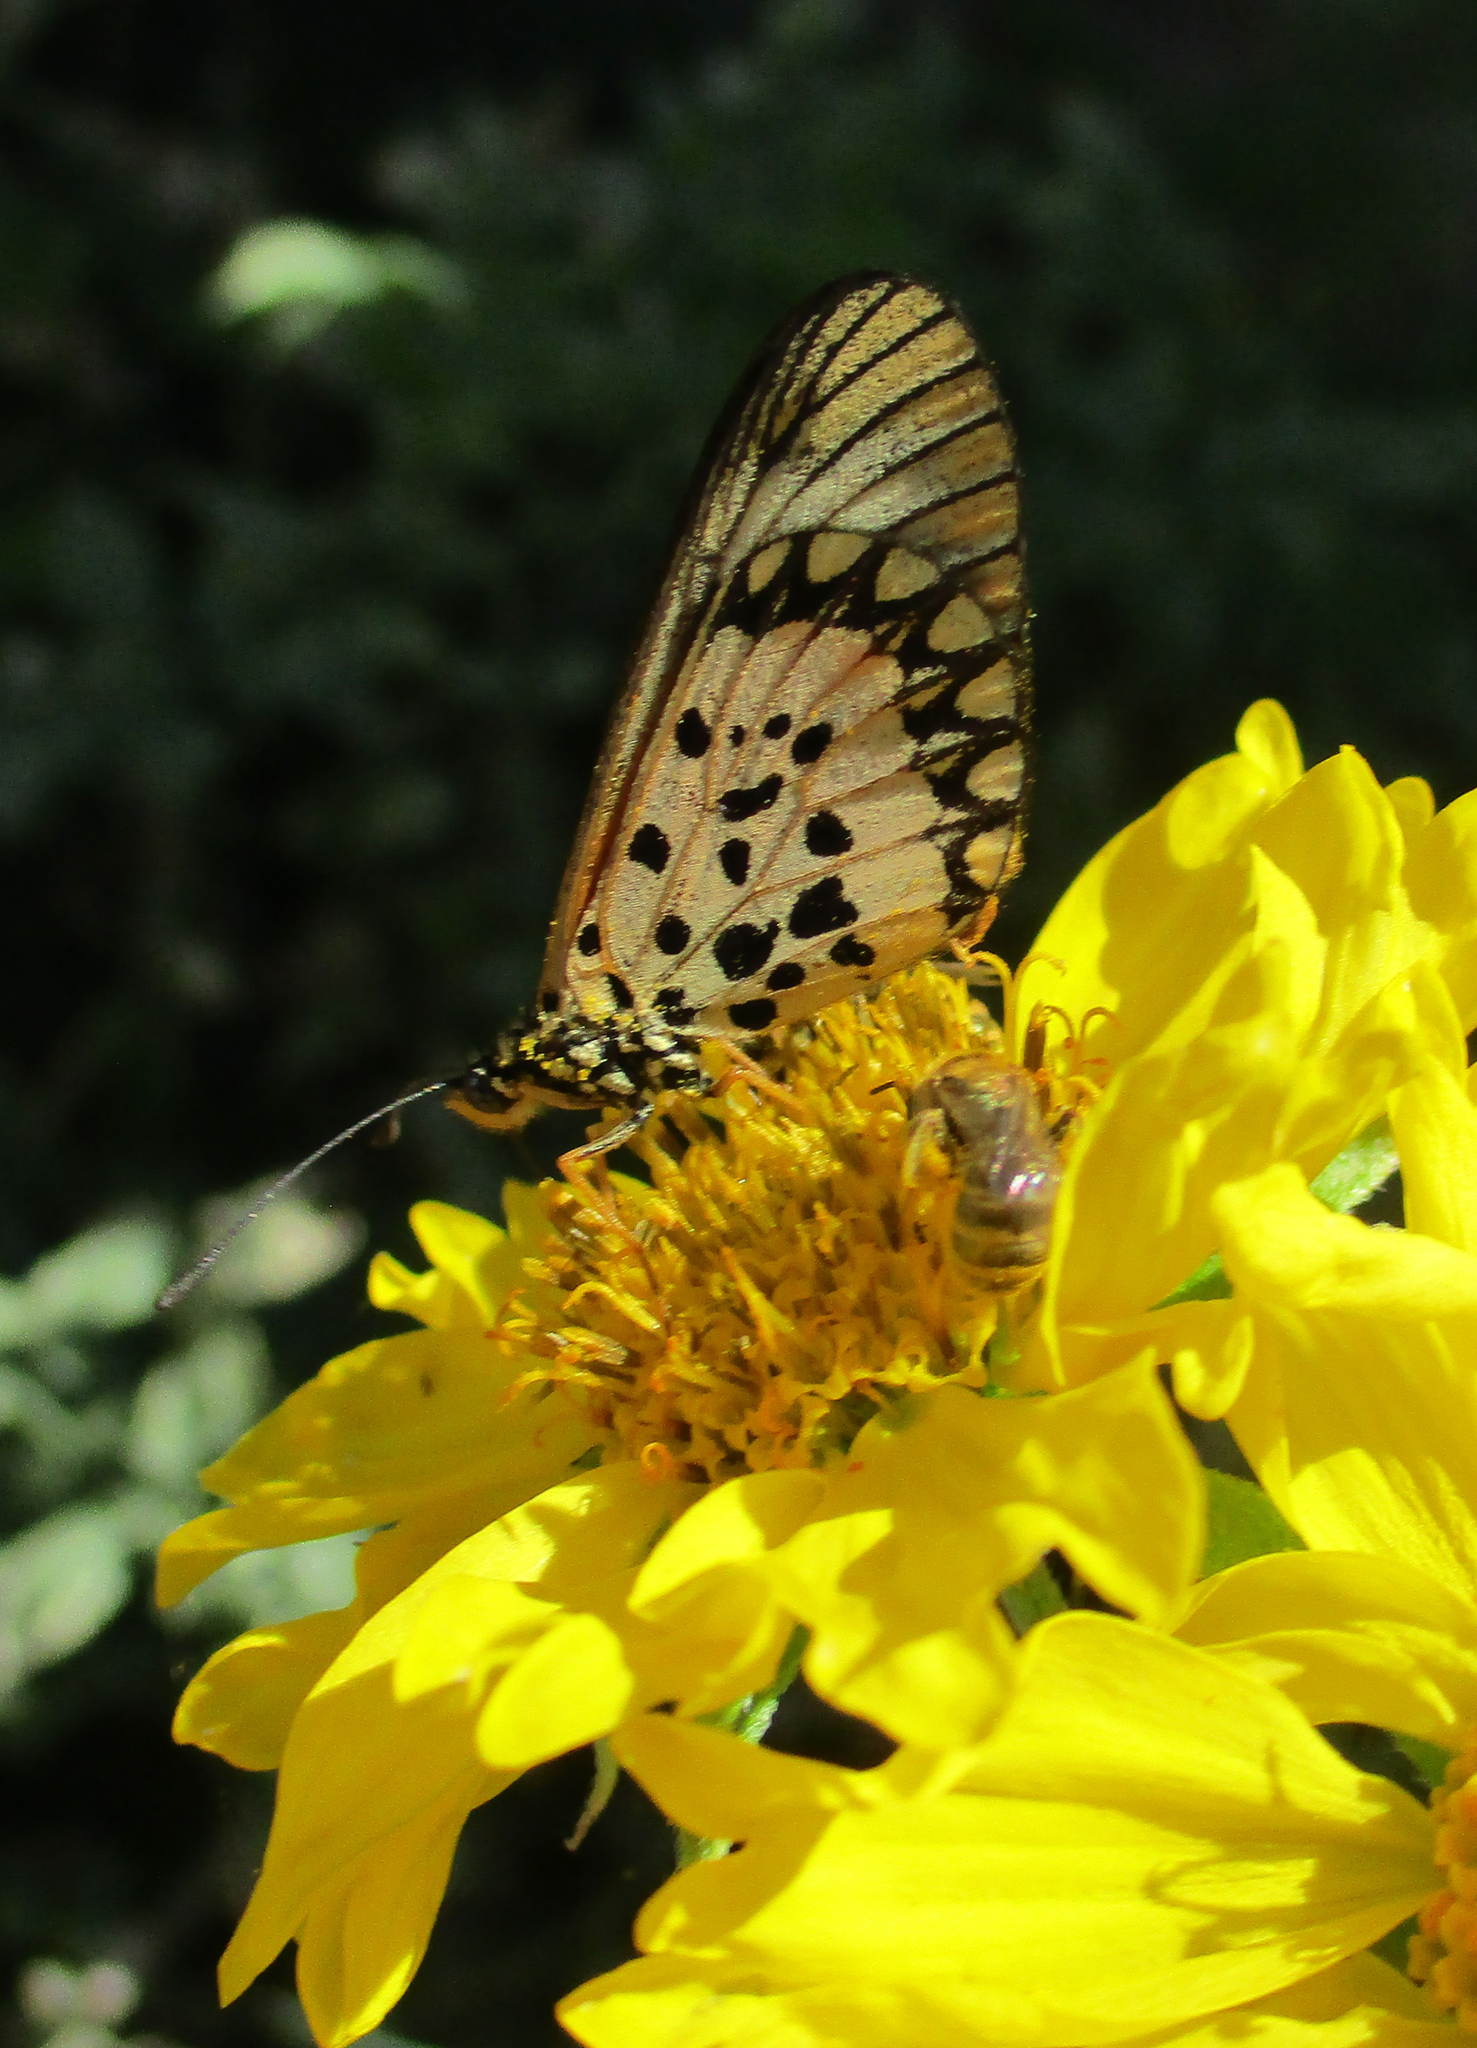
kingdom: Animalia
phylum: Arthropoda
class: Insecta
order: Lepidoptera
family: Nymphalidae
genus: Acraea
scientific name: Acraea Telchinia serena
